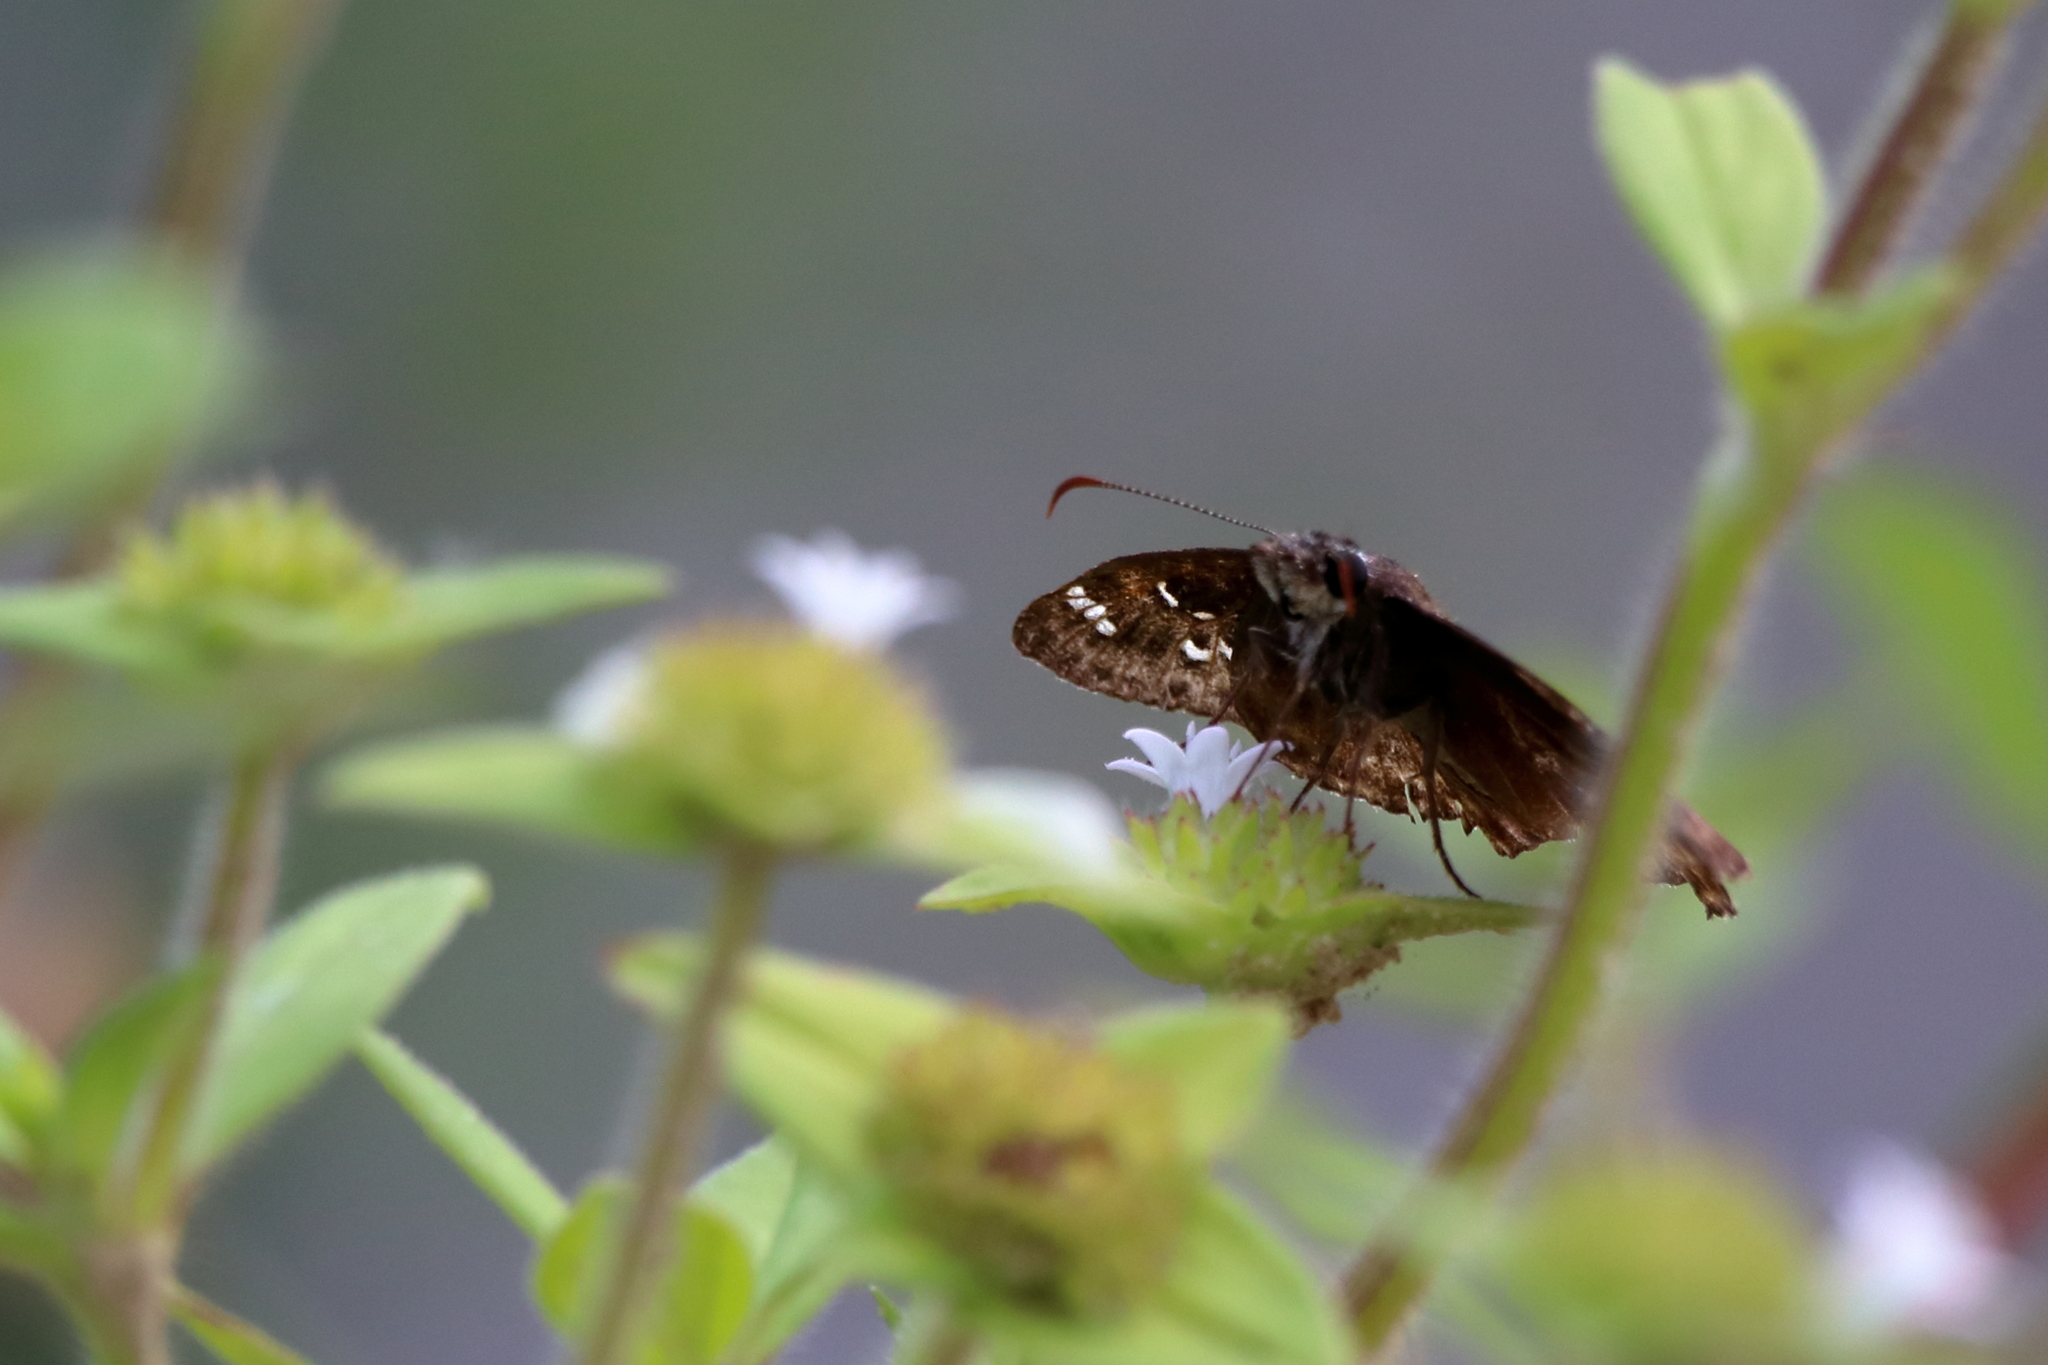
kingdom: Animalia
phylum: Arthropoda
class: Insecta
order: Lepidoptera
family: Hesperiidae
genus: Erynnis
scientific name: Erynnis horatius
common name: Horace's duskywing
